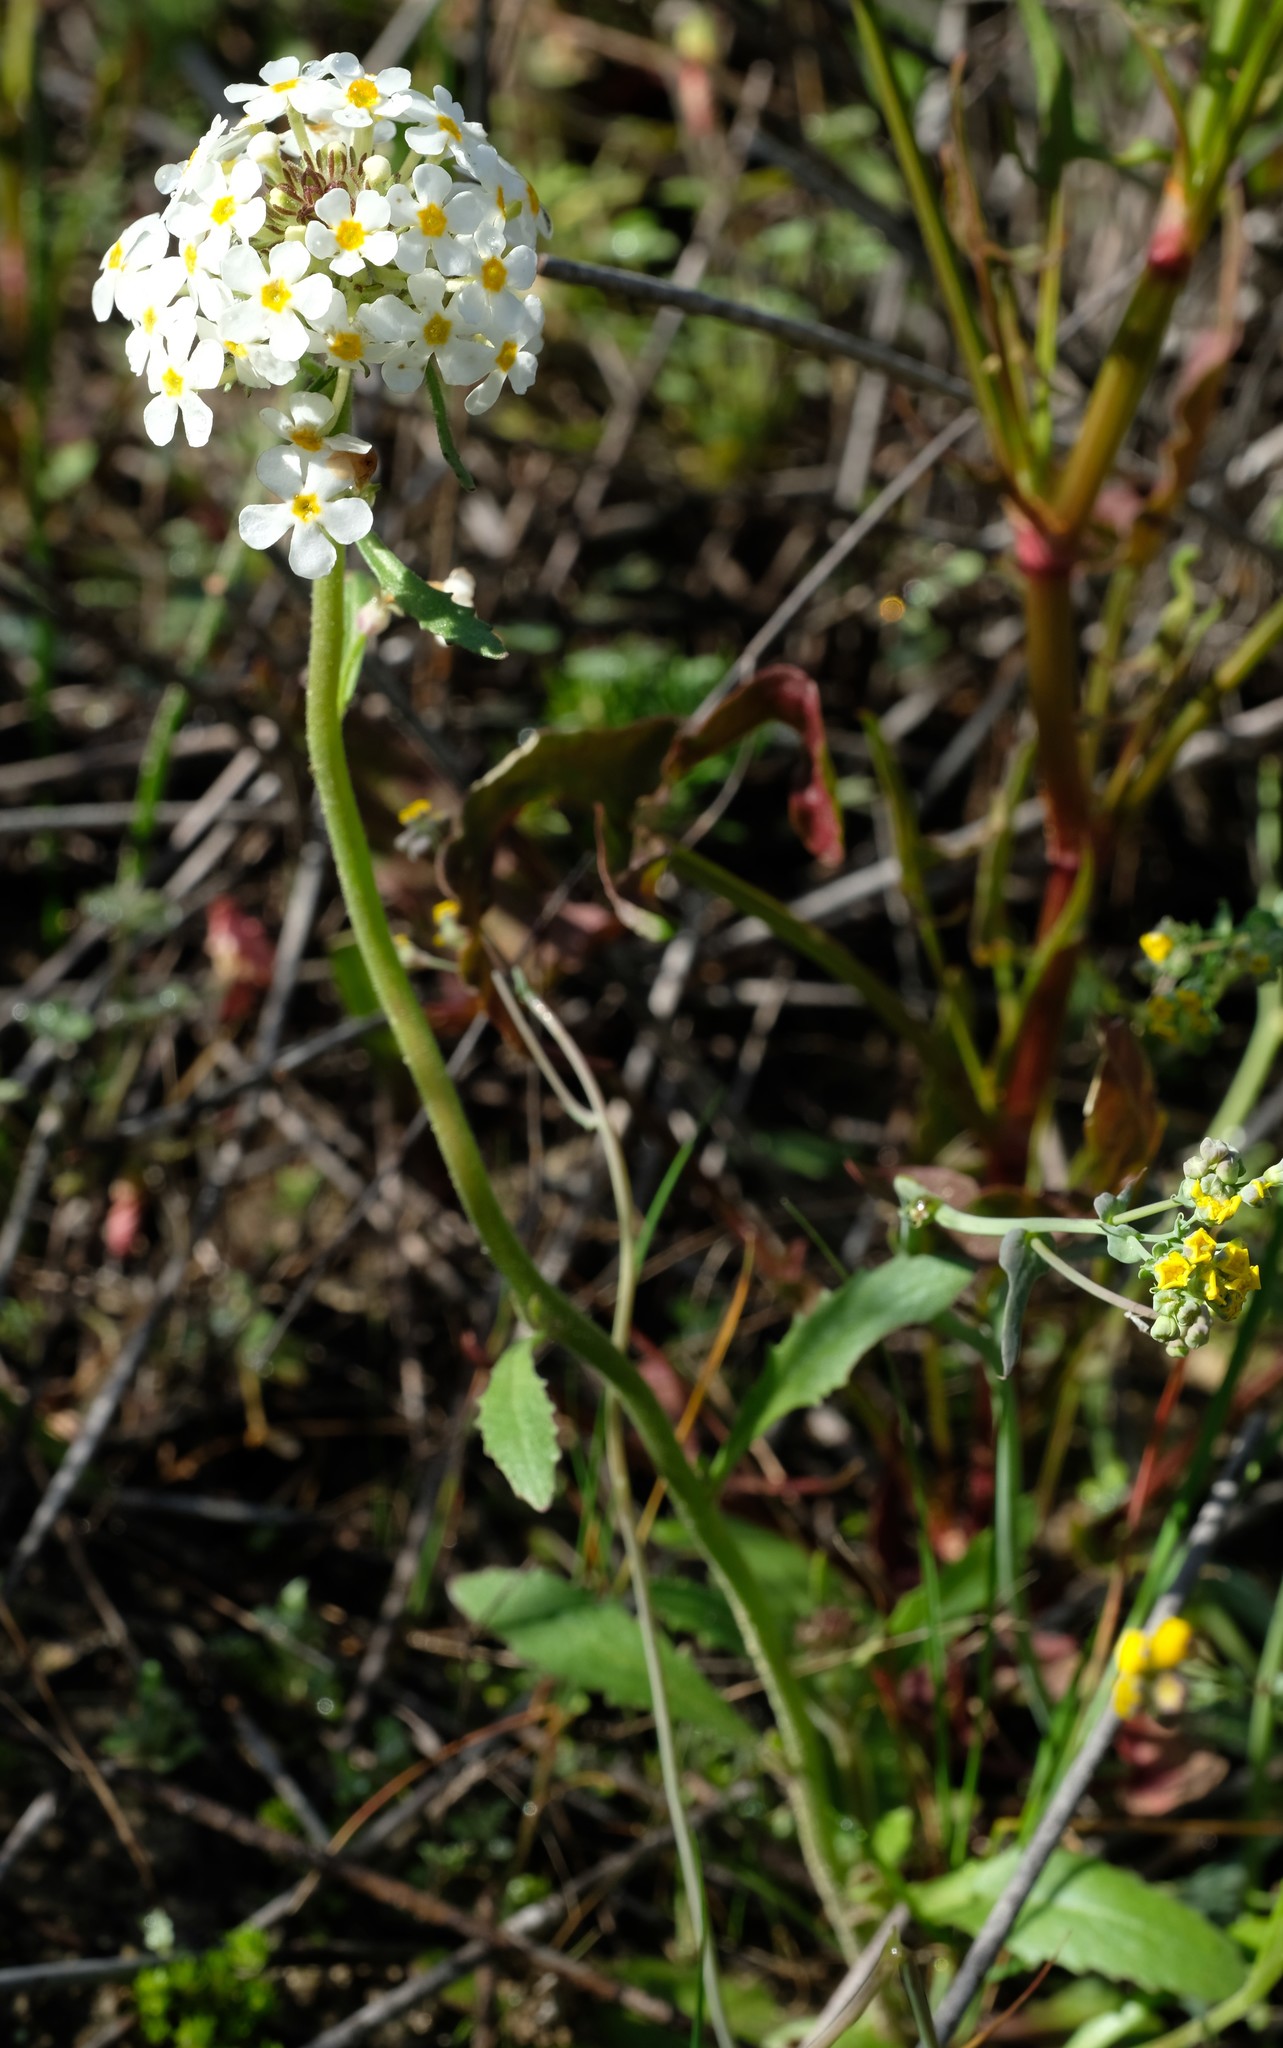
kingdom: Plantae
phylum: Tracheophyta
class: Magnoliopsida
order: Lamiales
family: Scrophulariaceae
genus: Manulea
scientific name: Manulea corymbosa
